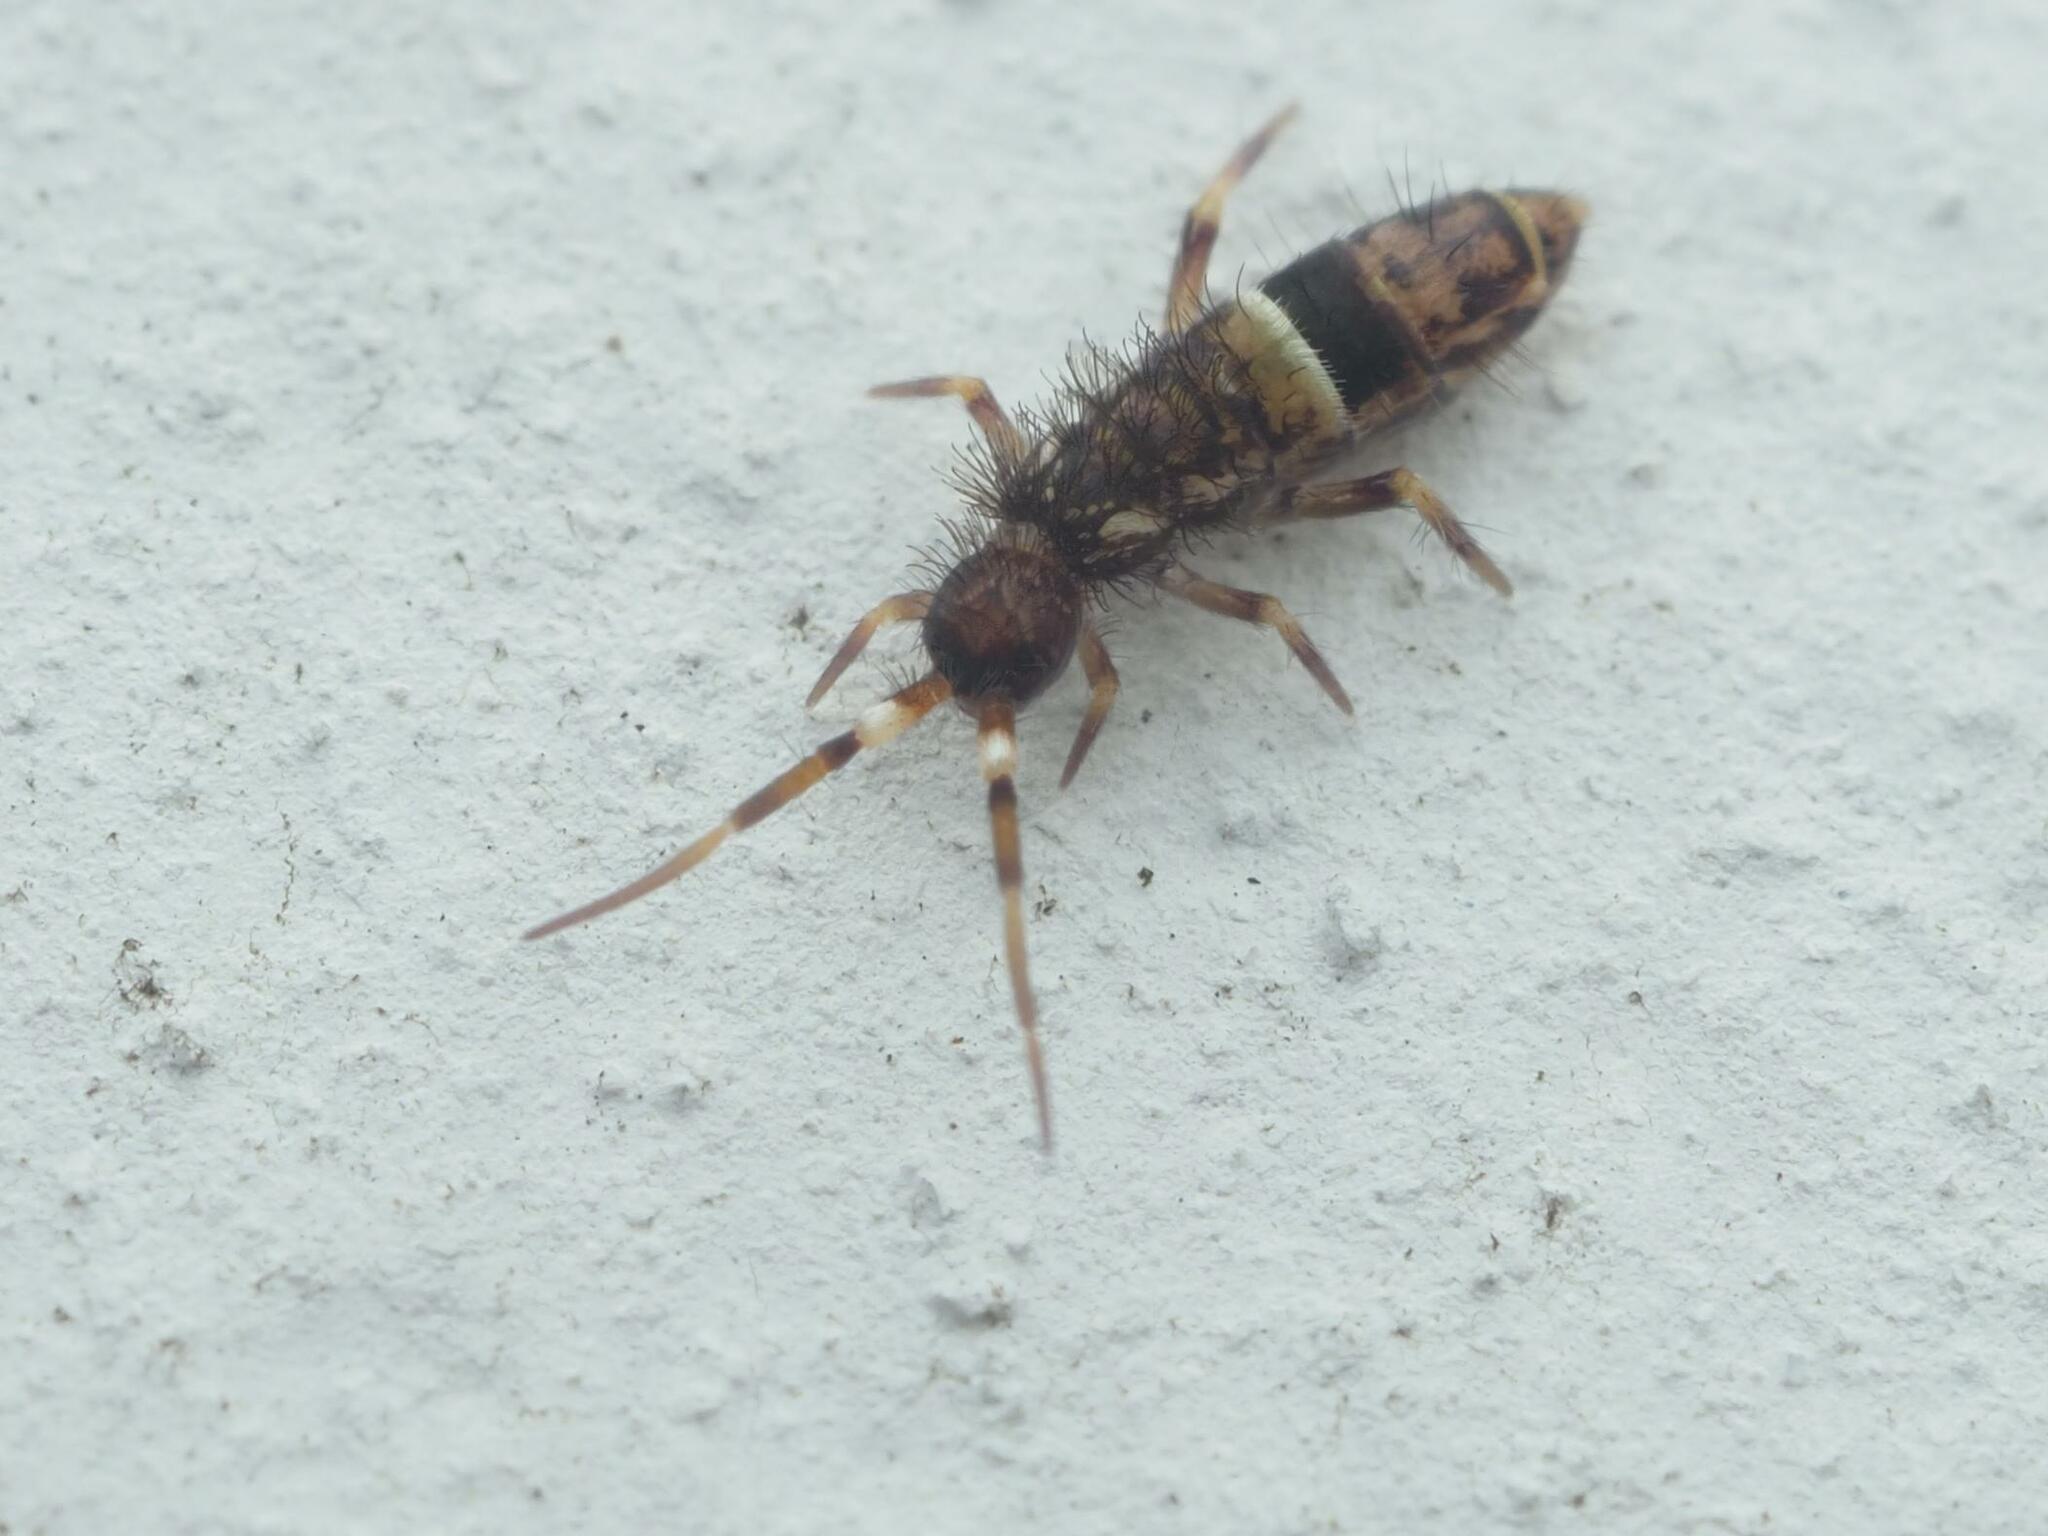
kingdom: Animalia
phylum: Arthropoda
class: Collembola
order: Entomobryomorpha
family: Orchesellidae
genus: Orchesella
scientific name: Orchesella cincta
